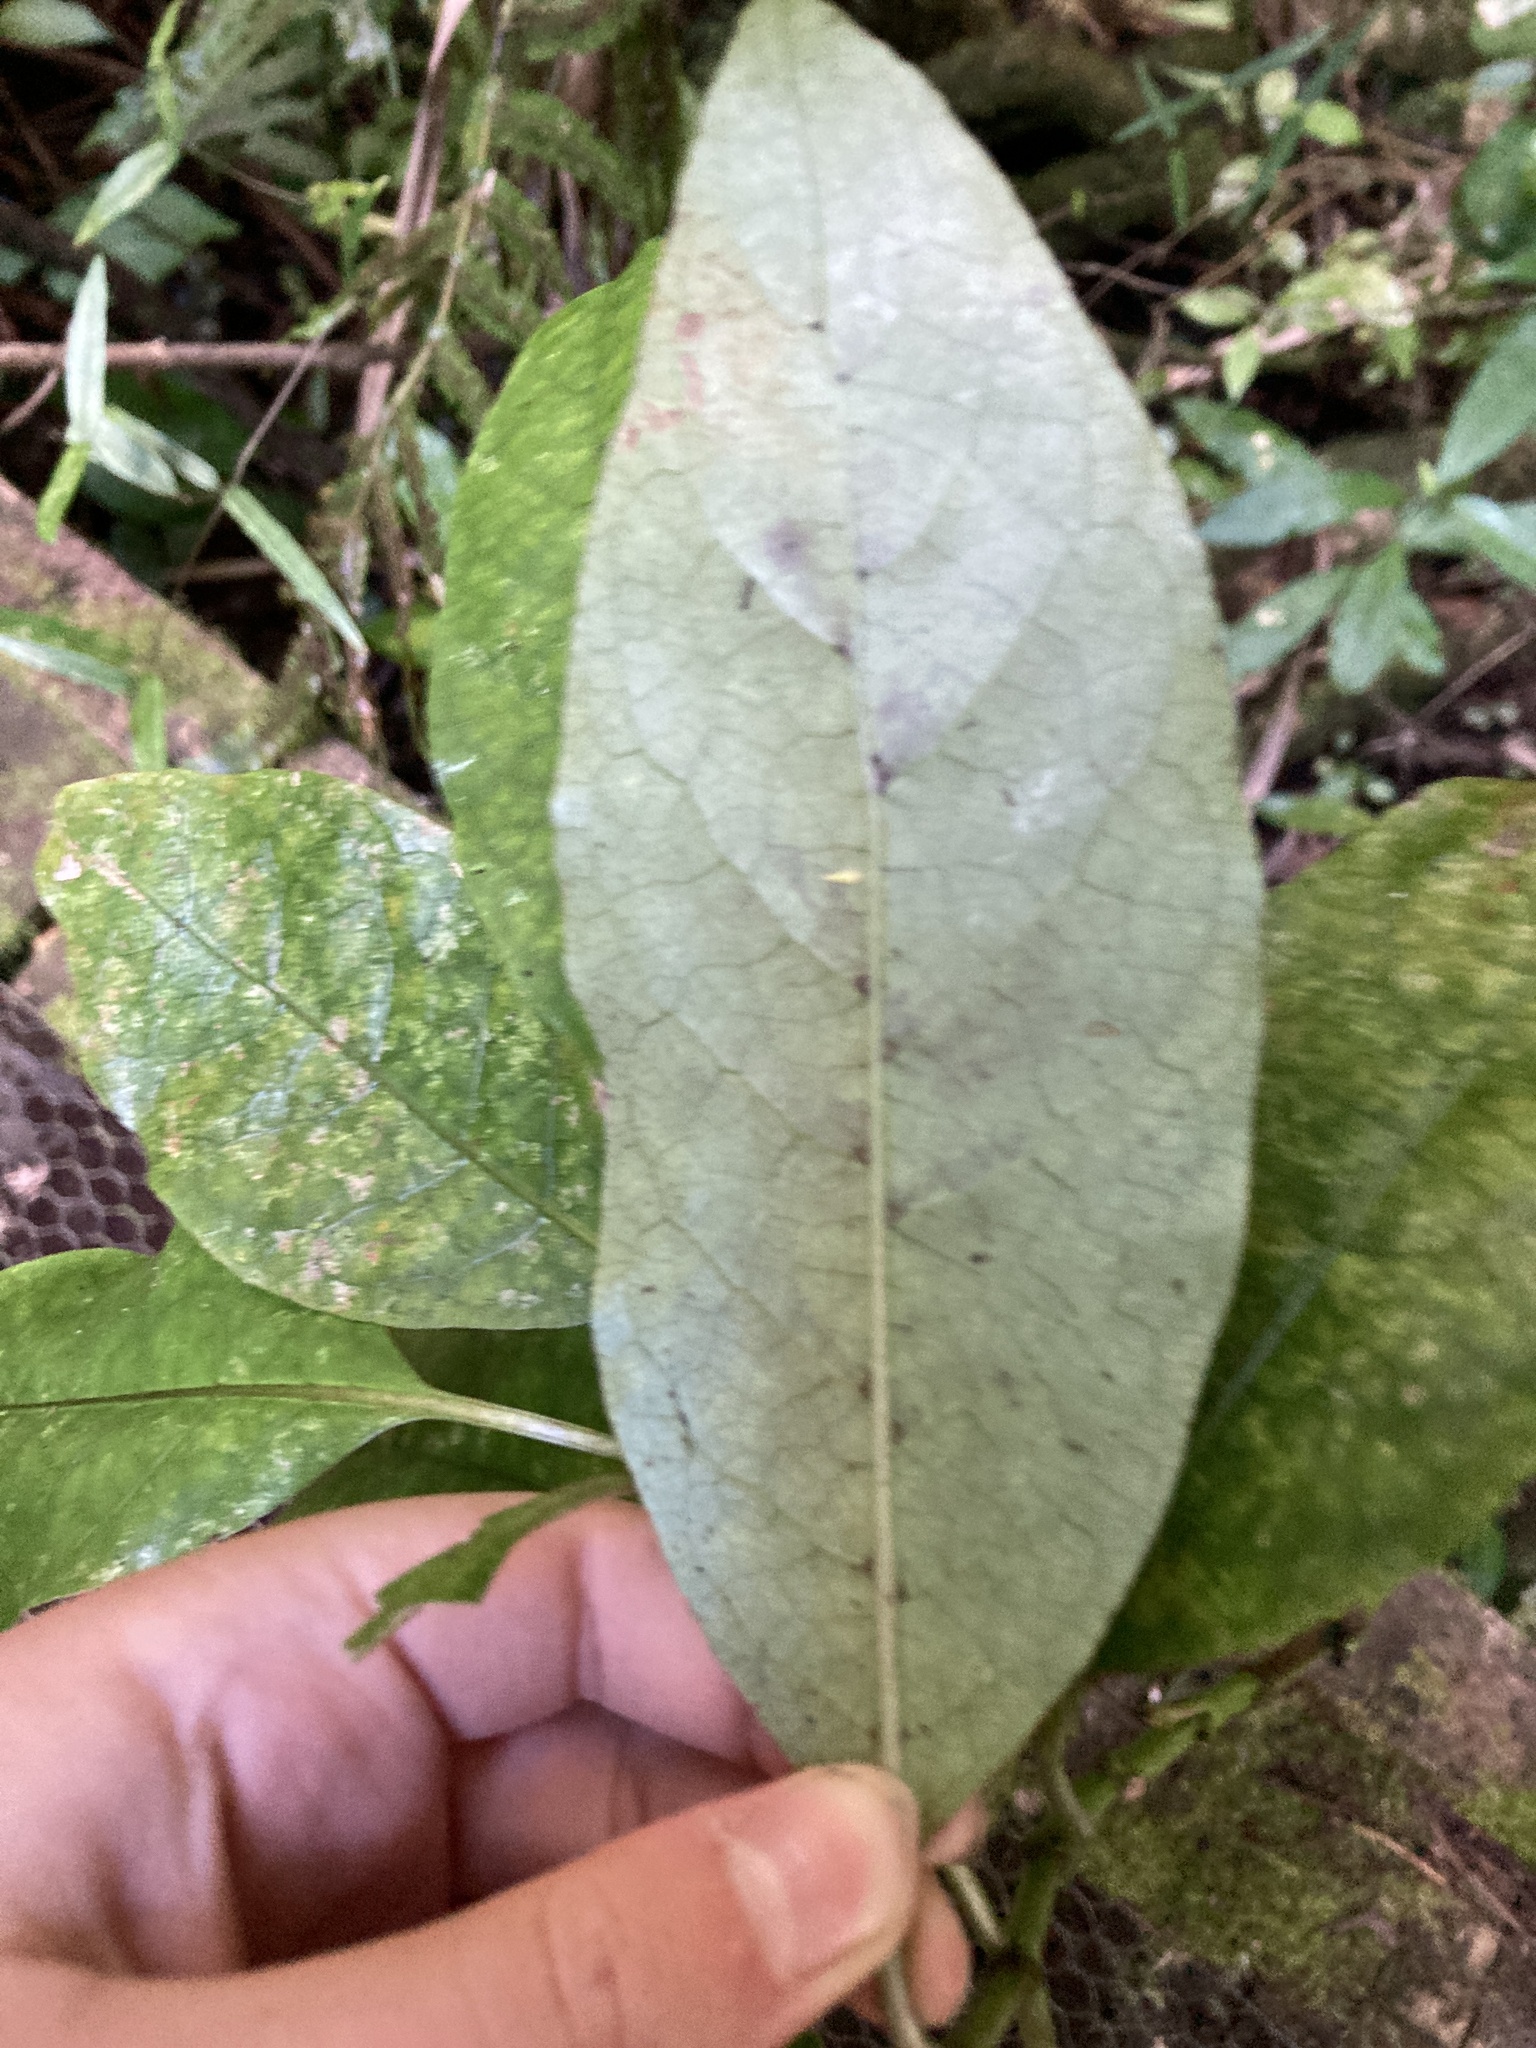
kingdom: Plantae
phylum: Tracheophyta
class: Magnoliopsida
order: Gentianales
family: Rubiaceae
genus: Coprosma
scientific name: Coprosma autumnalis
